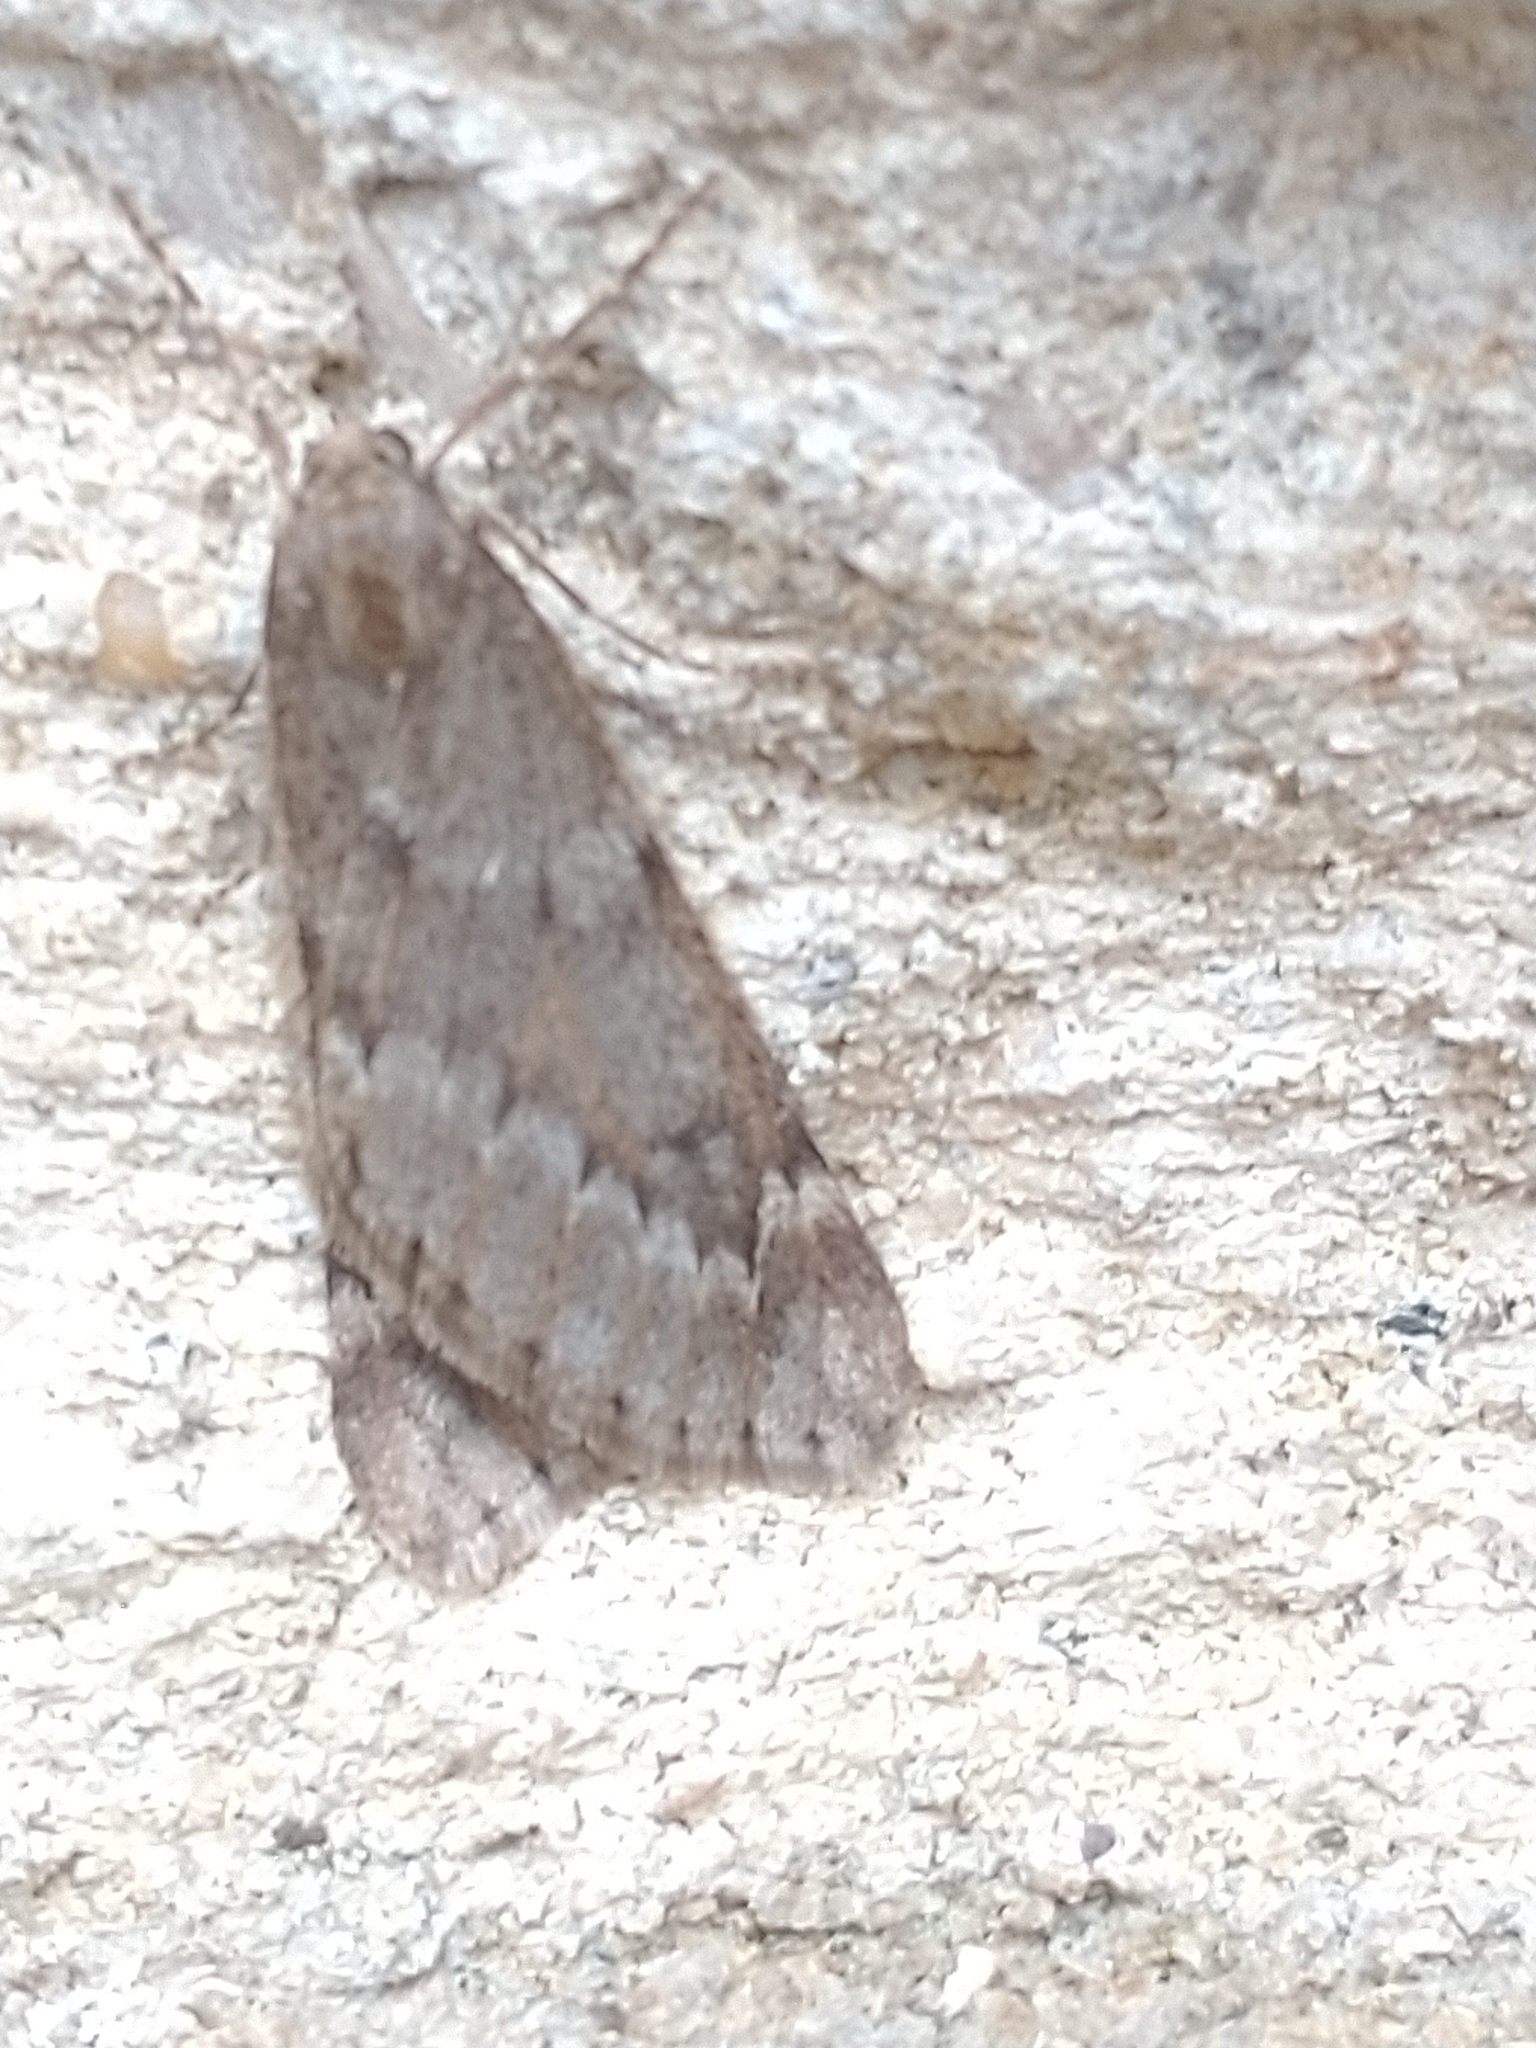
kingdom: Animalia
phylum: Arthropoda
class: Insecta
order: Lepidoptera
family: Geometridae
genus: Alsophila
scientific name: Alsophila aescularia
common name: March moth
